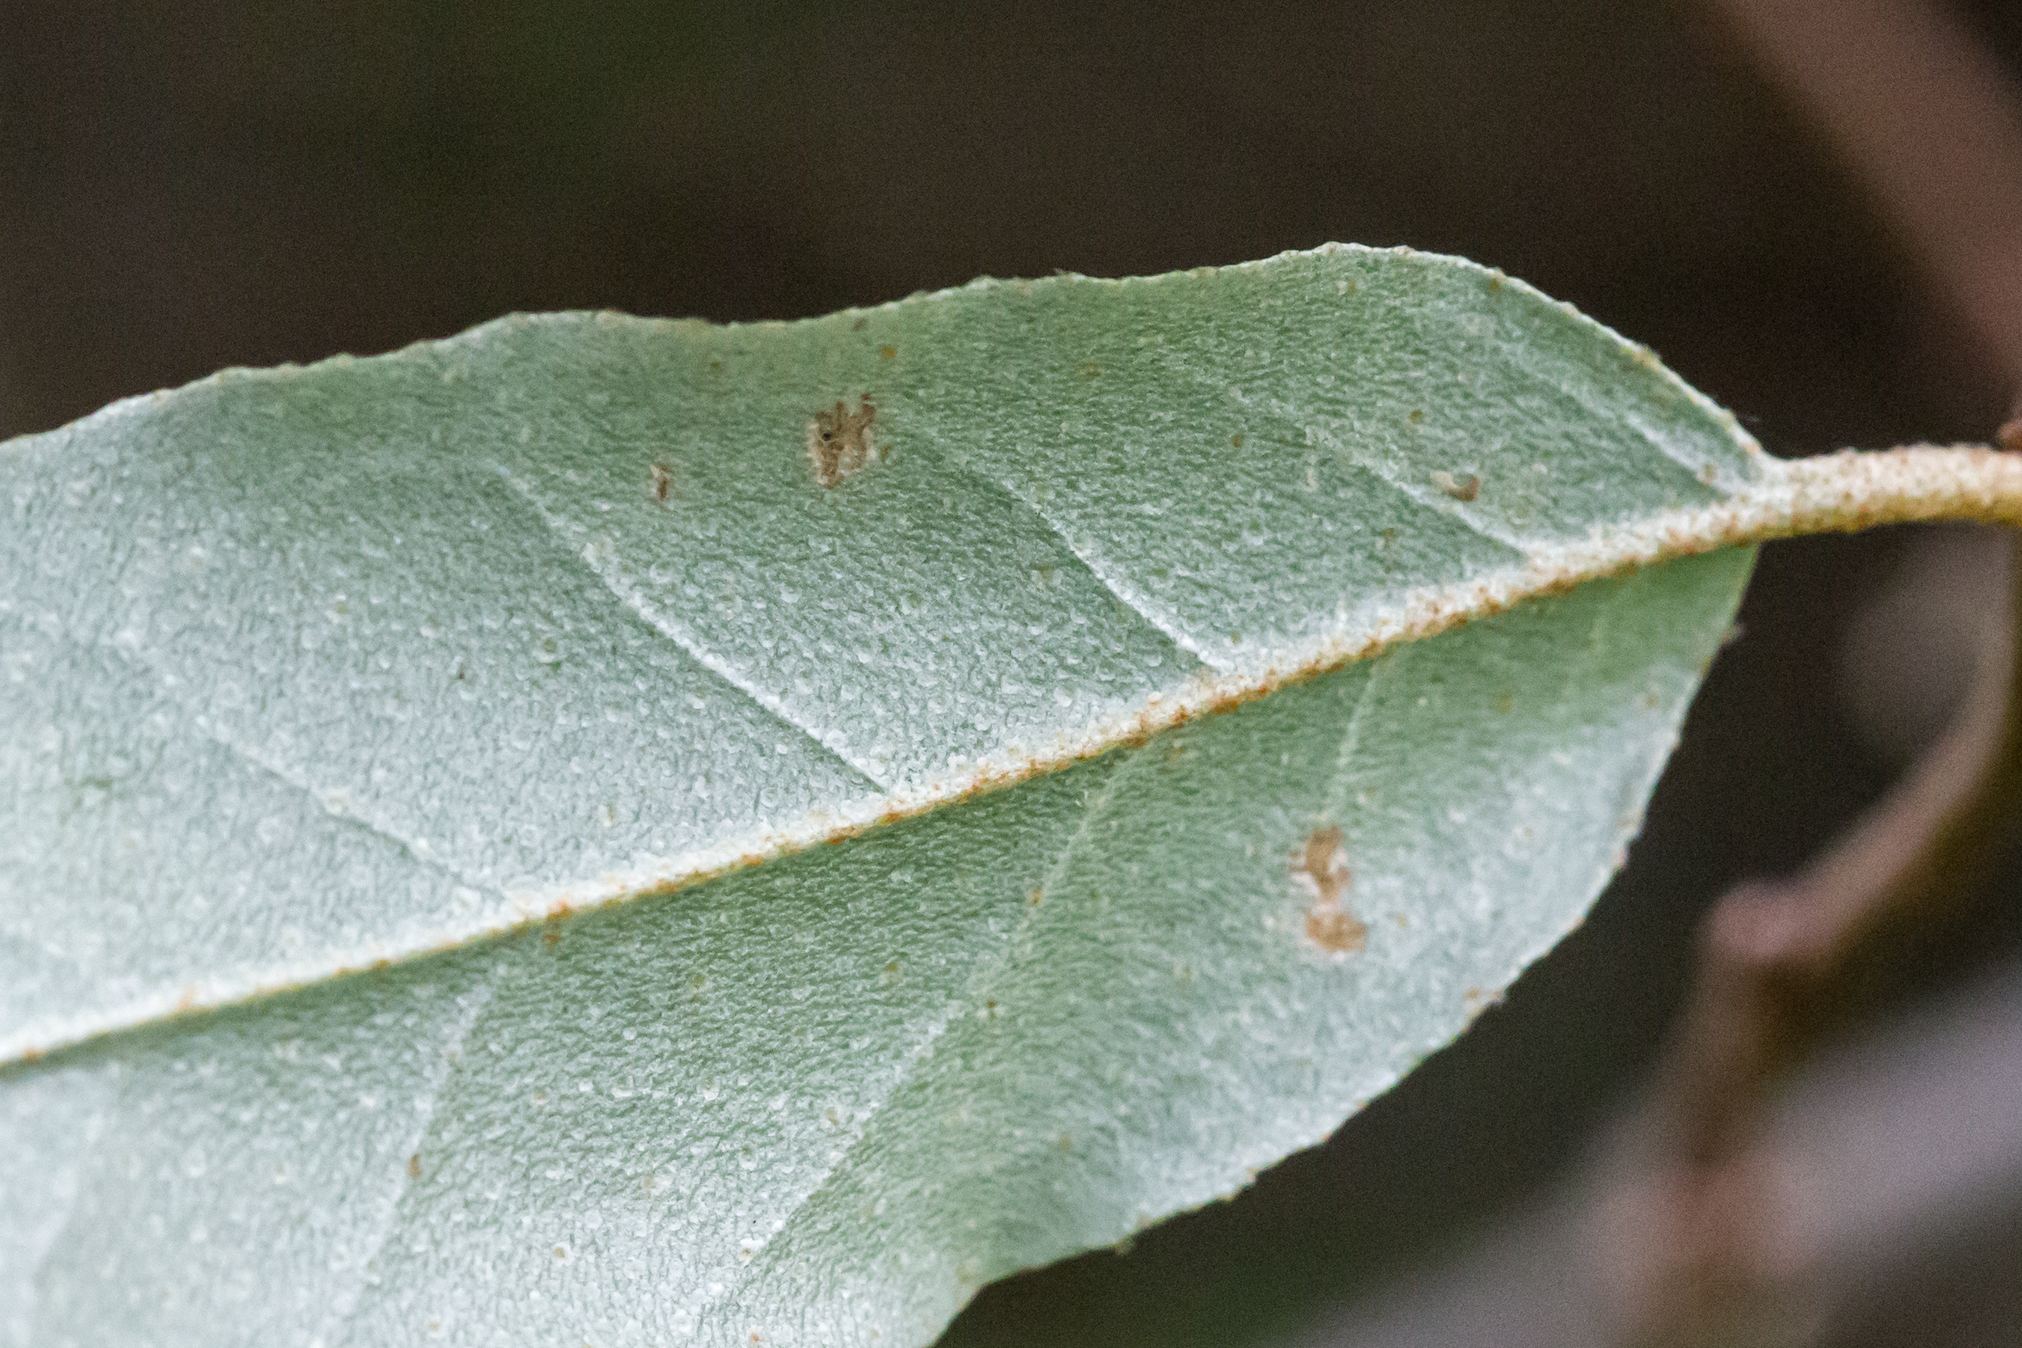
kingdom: Plantae
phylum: Tracheophyta
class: Magnoliopsida
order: Rosales
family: Elaeagnaceae
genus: Elaeagnus
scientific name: Elaeagnus umbellata
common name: Autumn olive
